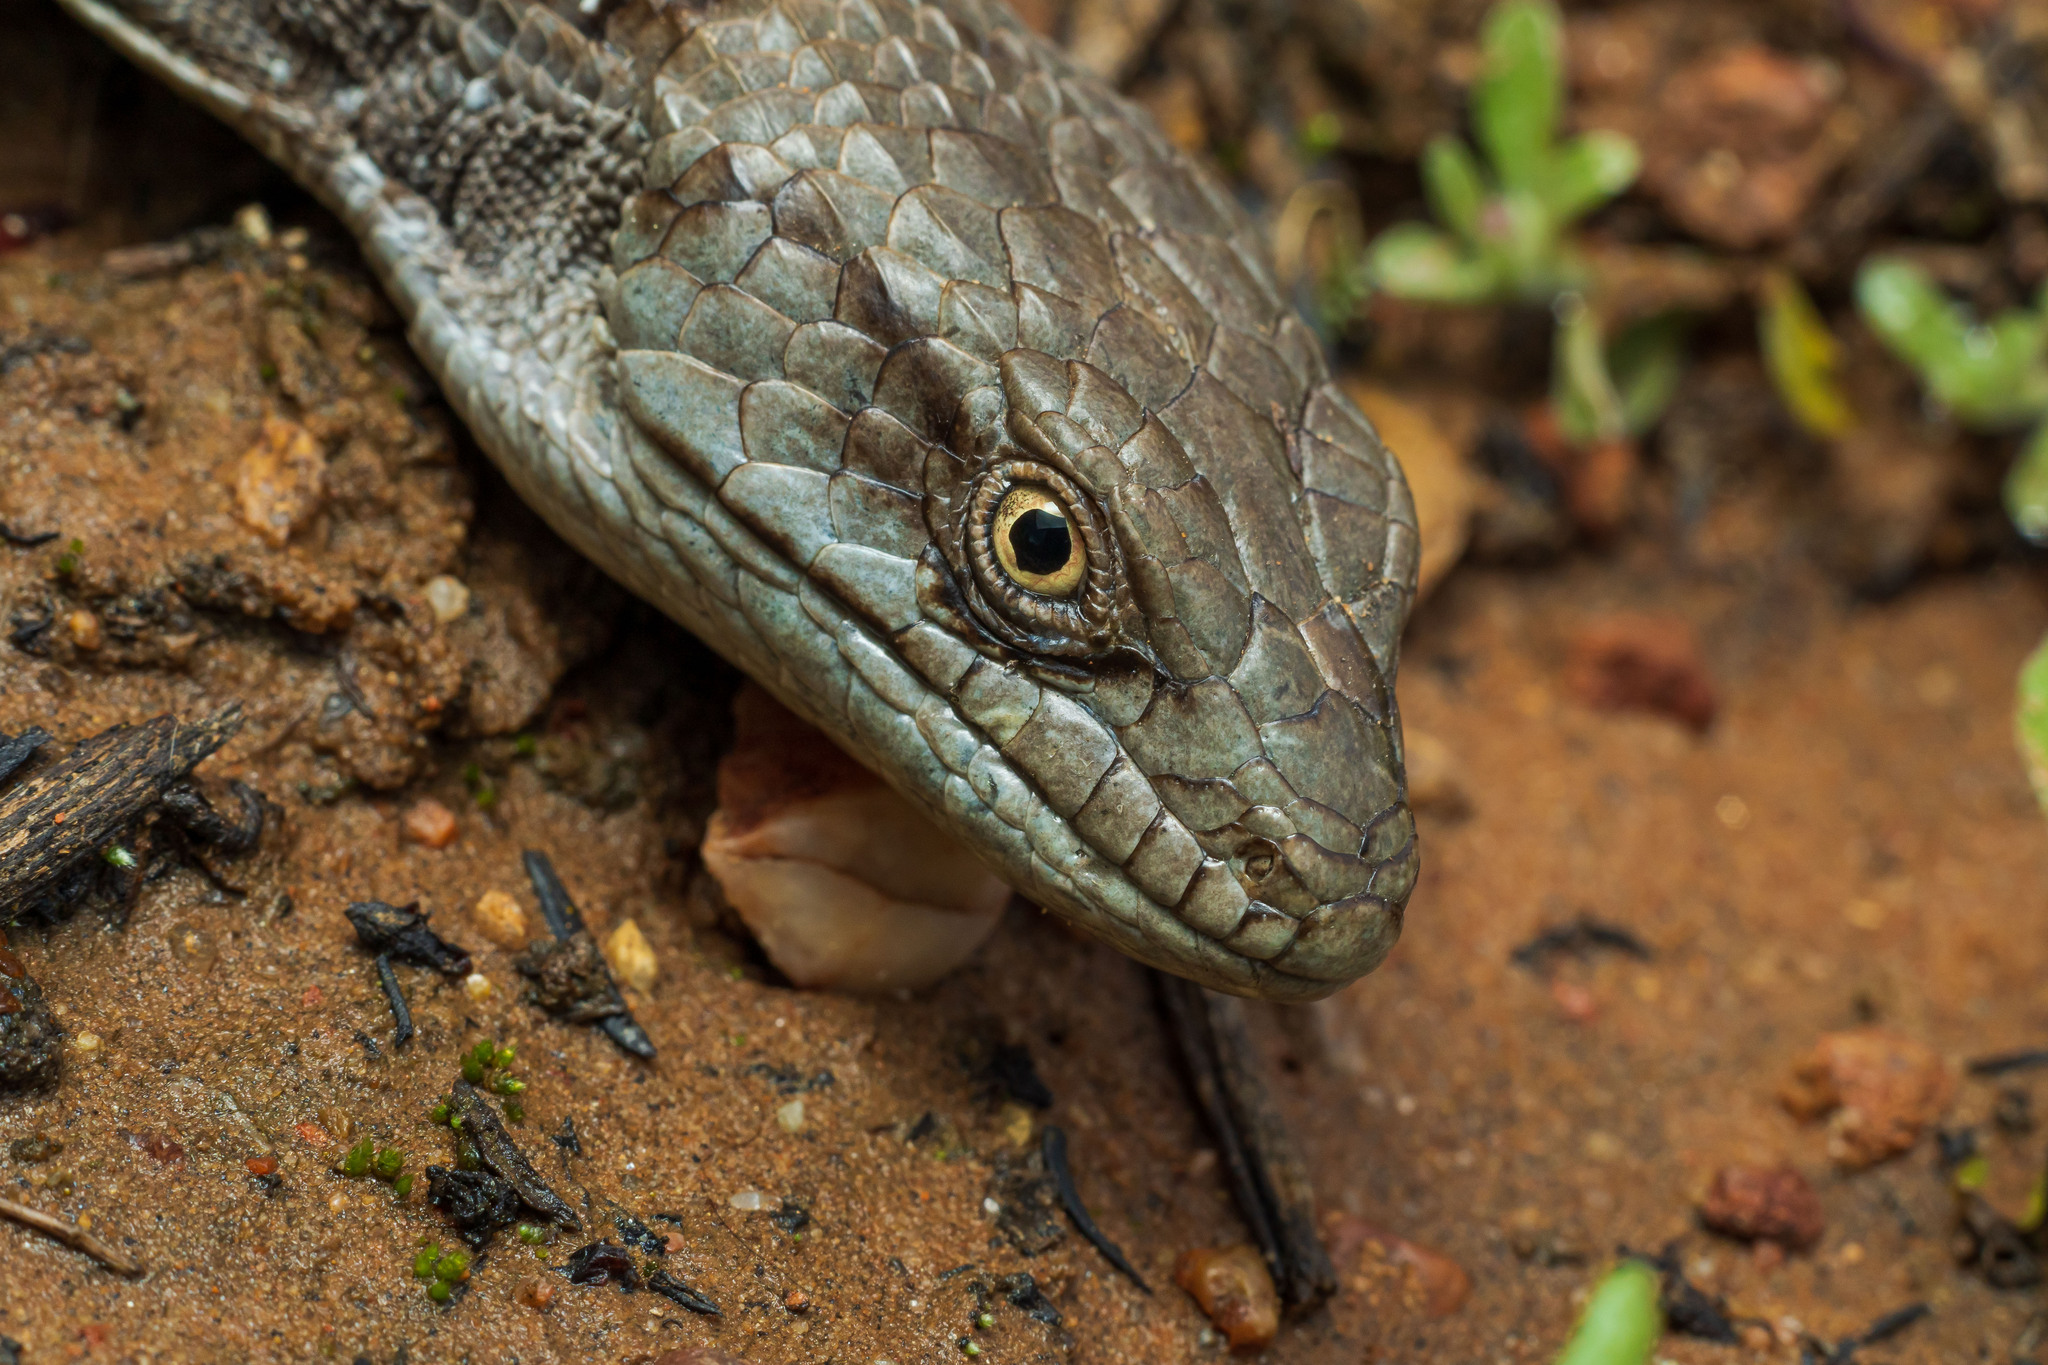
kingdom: Animalia
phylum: Chordata
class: Squamata
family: Anguidae
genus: Elgaria
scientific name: Elgaria multicarinata
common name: Southern alligator lizard
